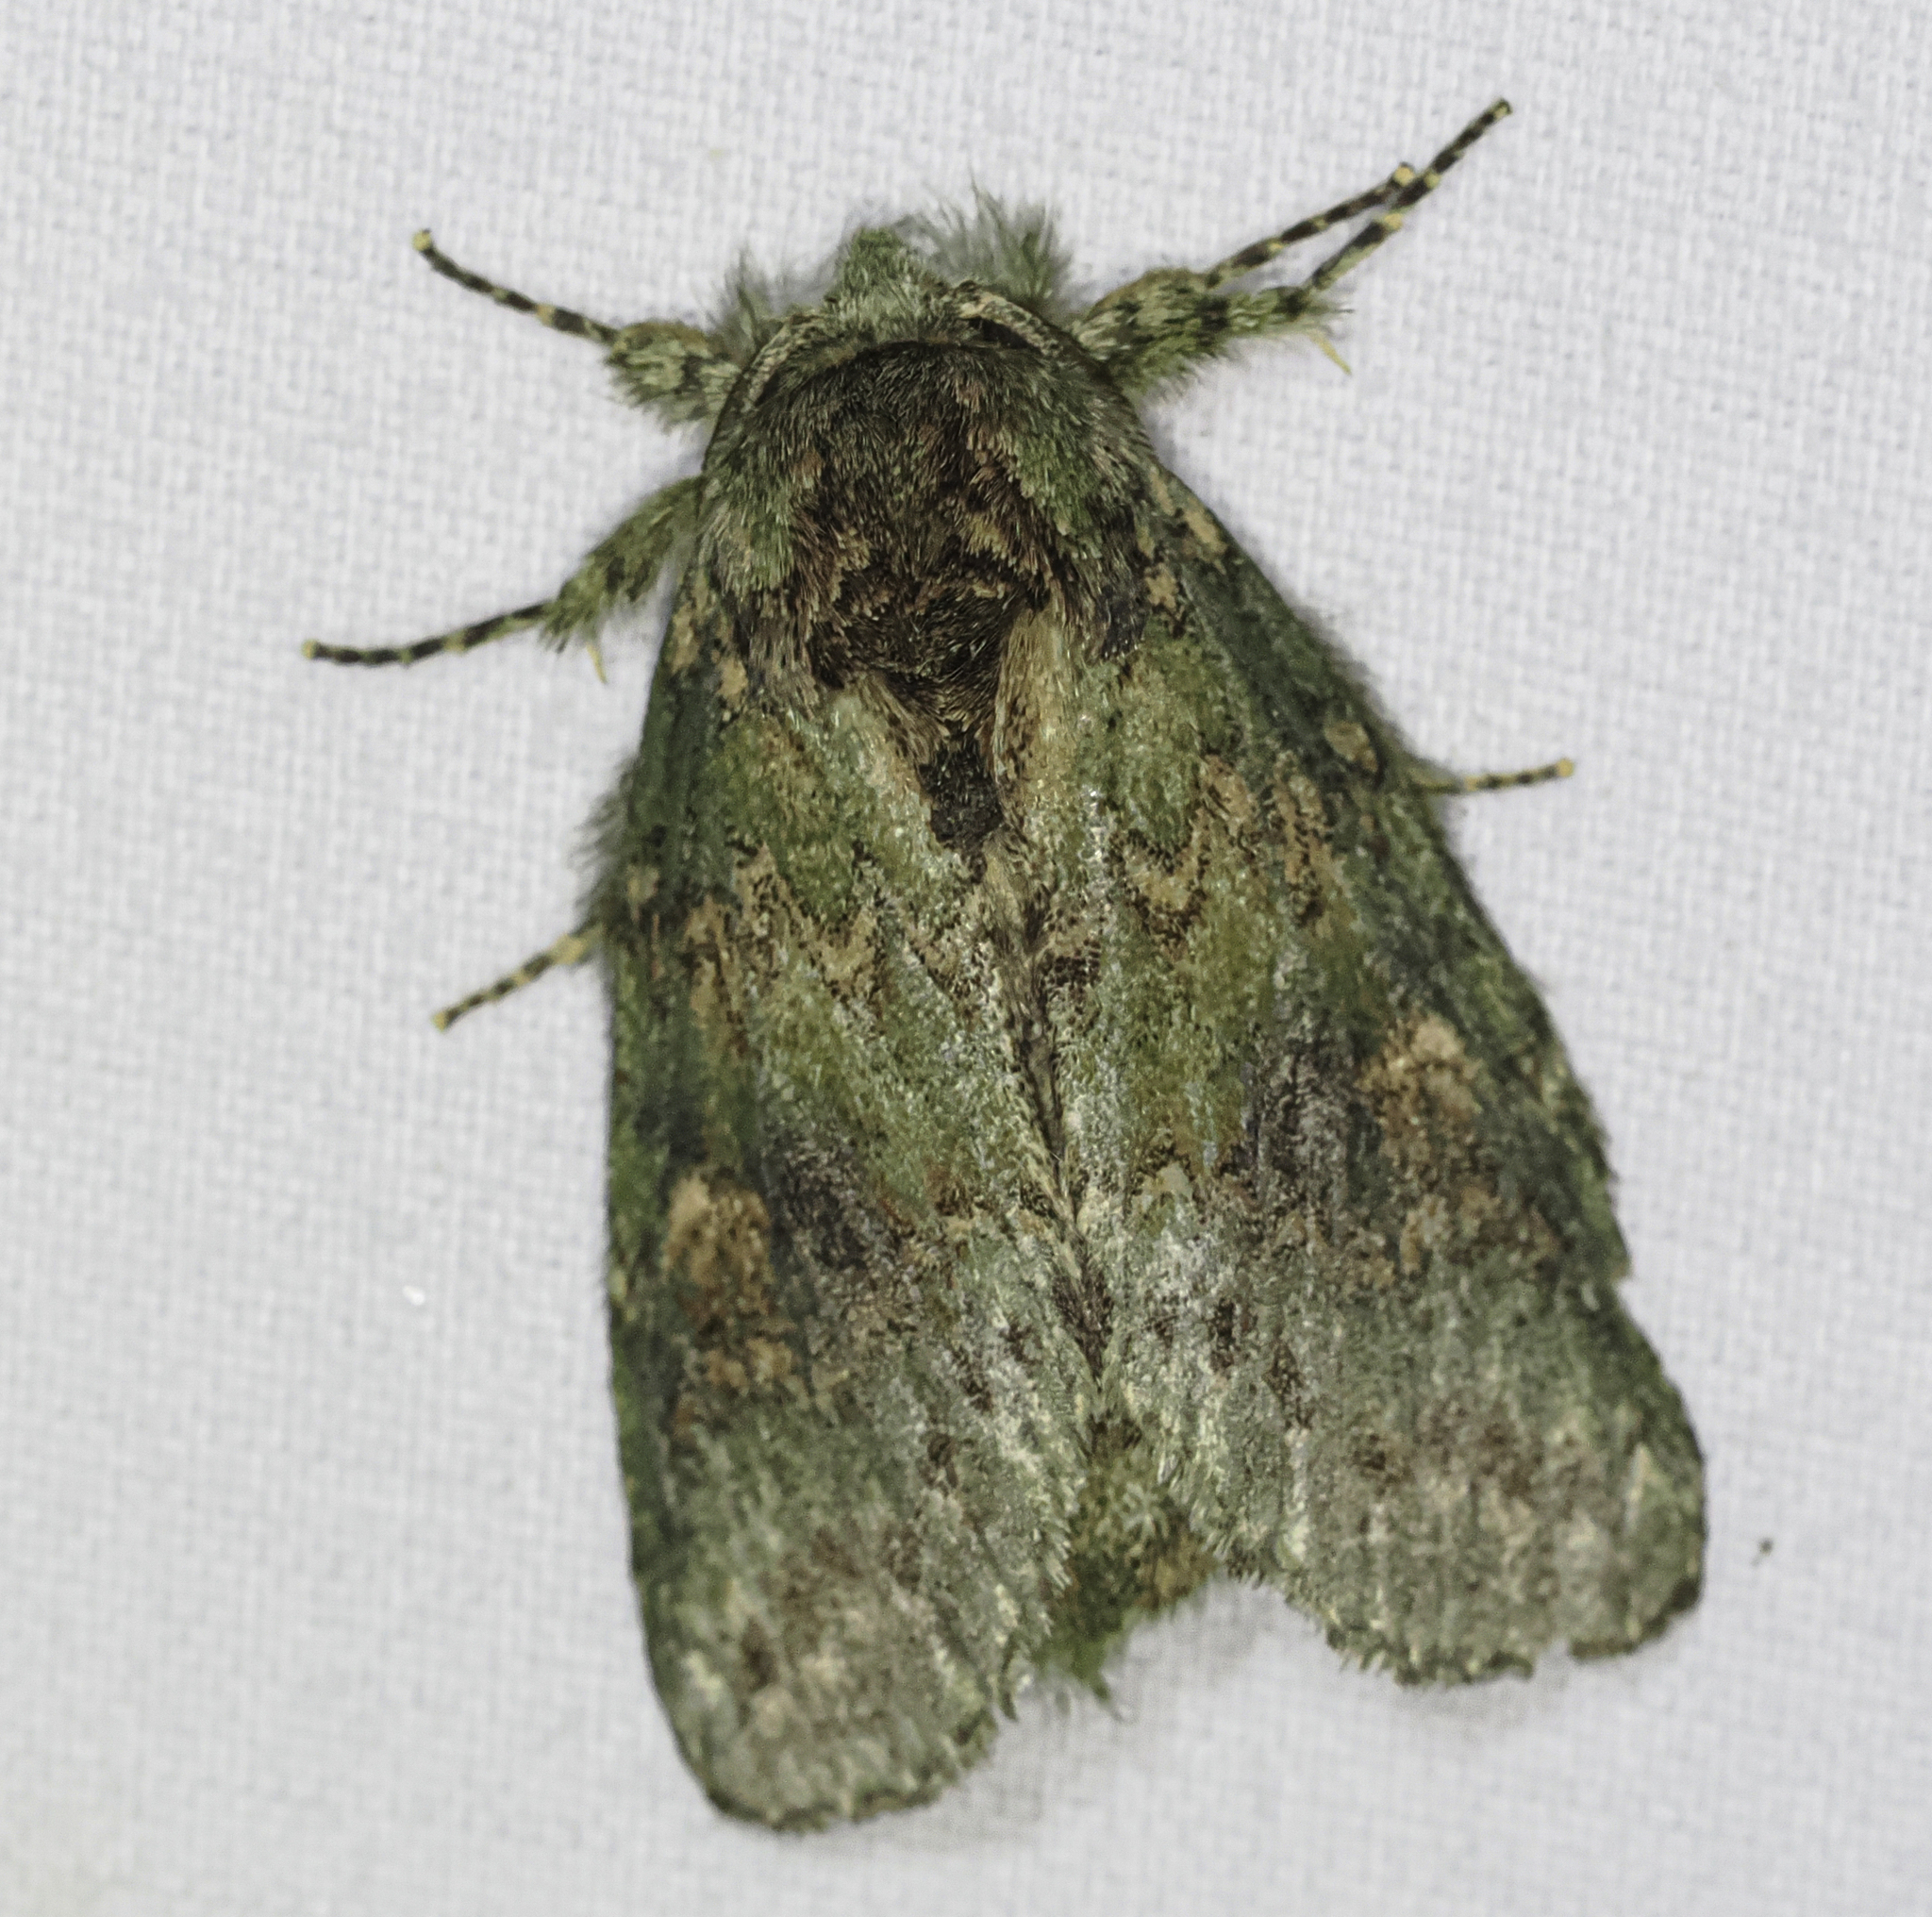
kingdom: Animalia
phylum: Arthropoda
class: Insecta
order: Lepidoptera
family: Notodontidae
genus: Disphragis
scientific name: Disphragis Cecrita biundata
